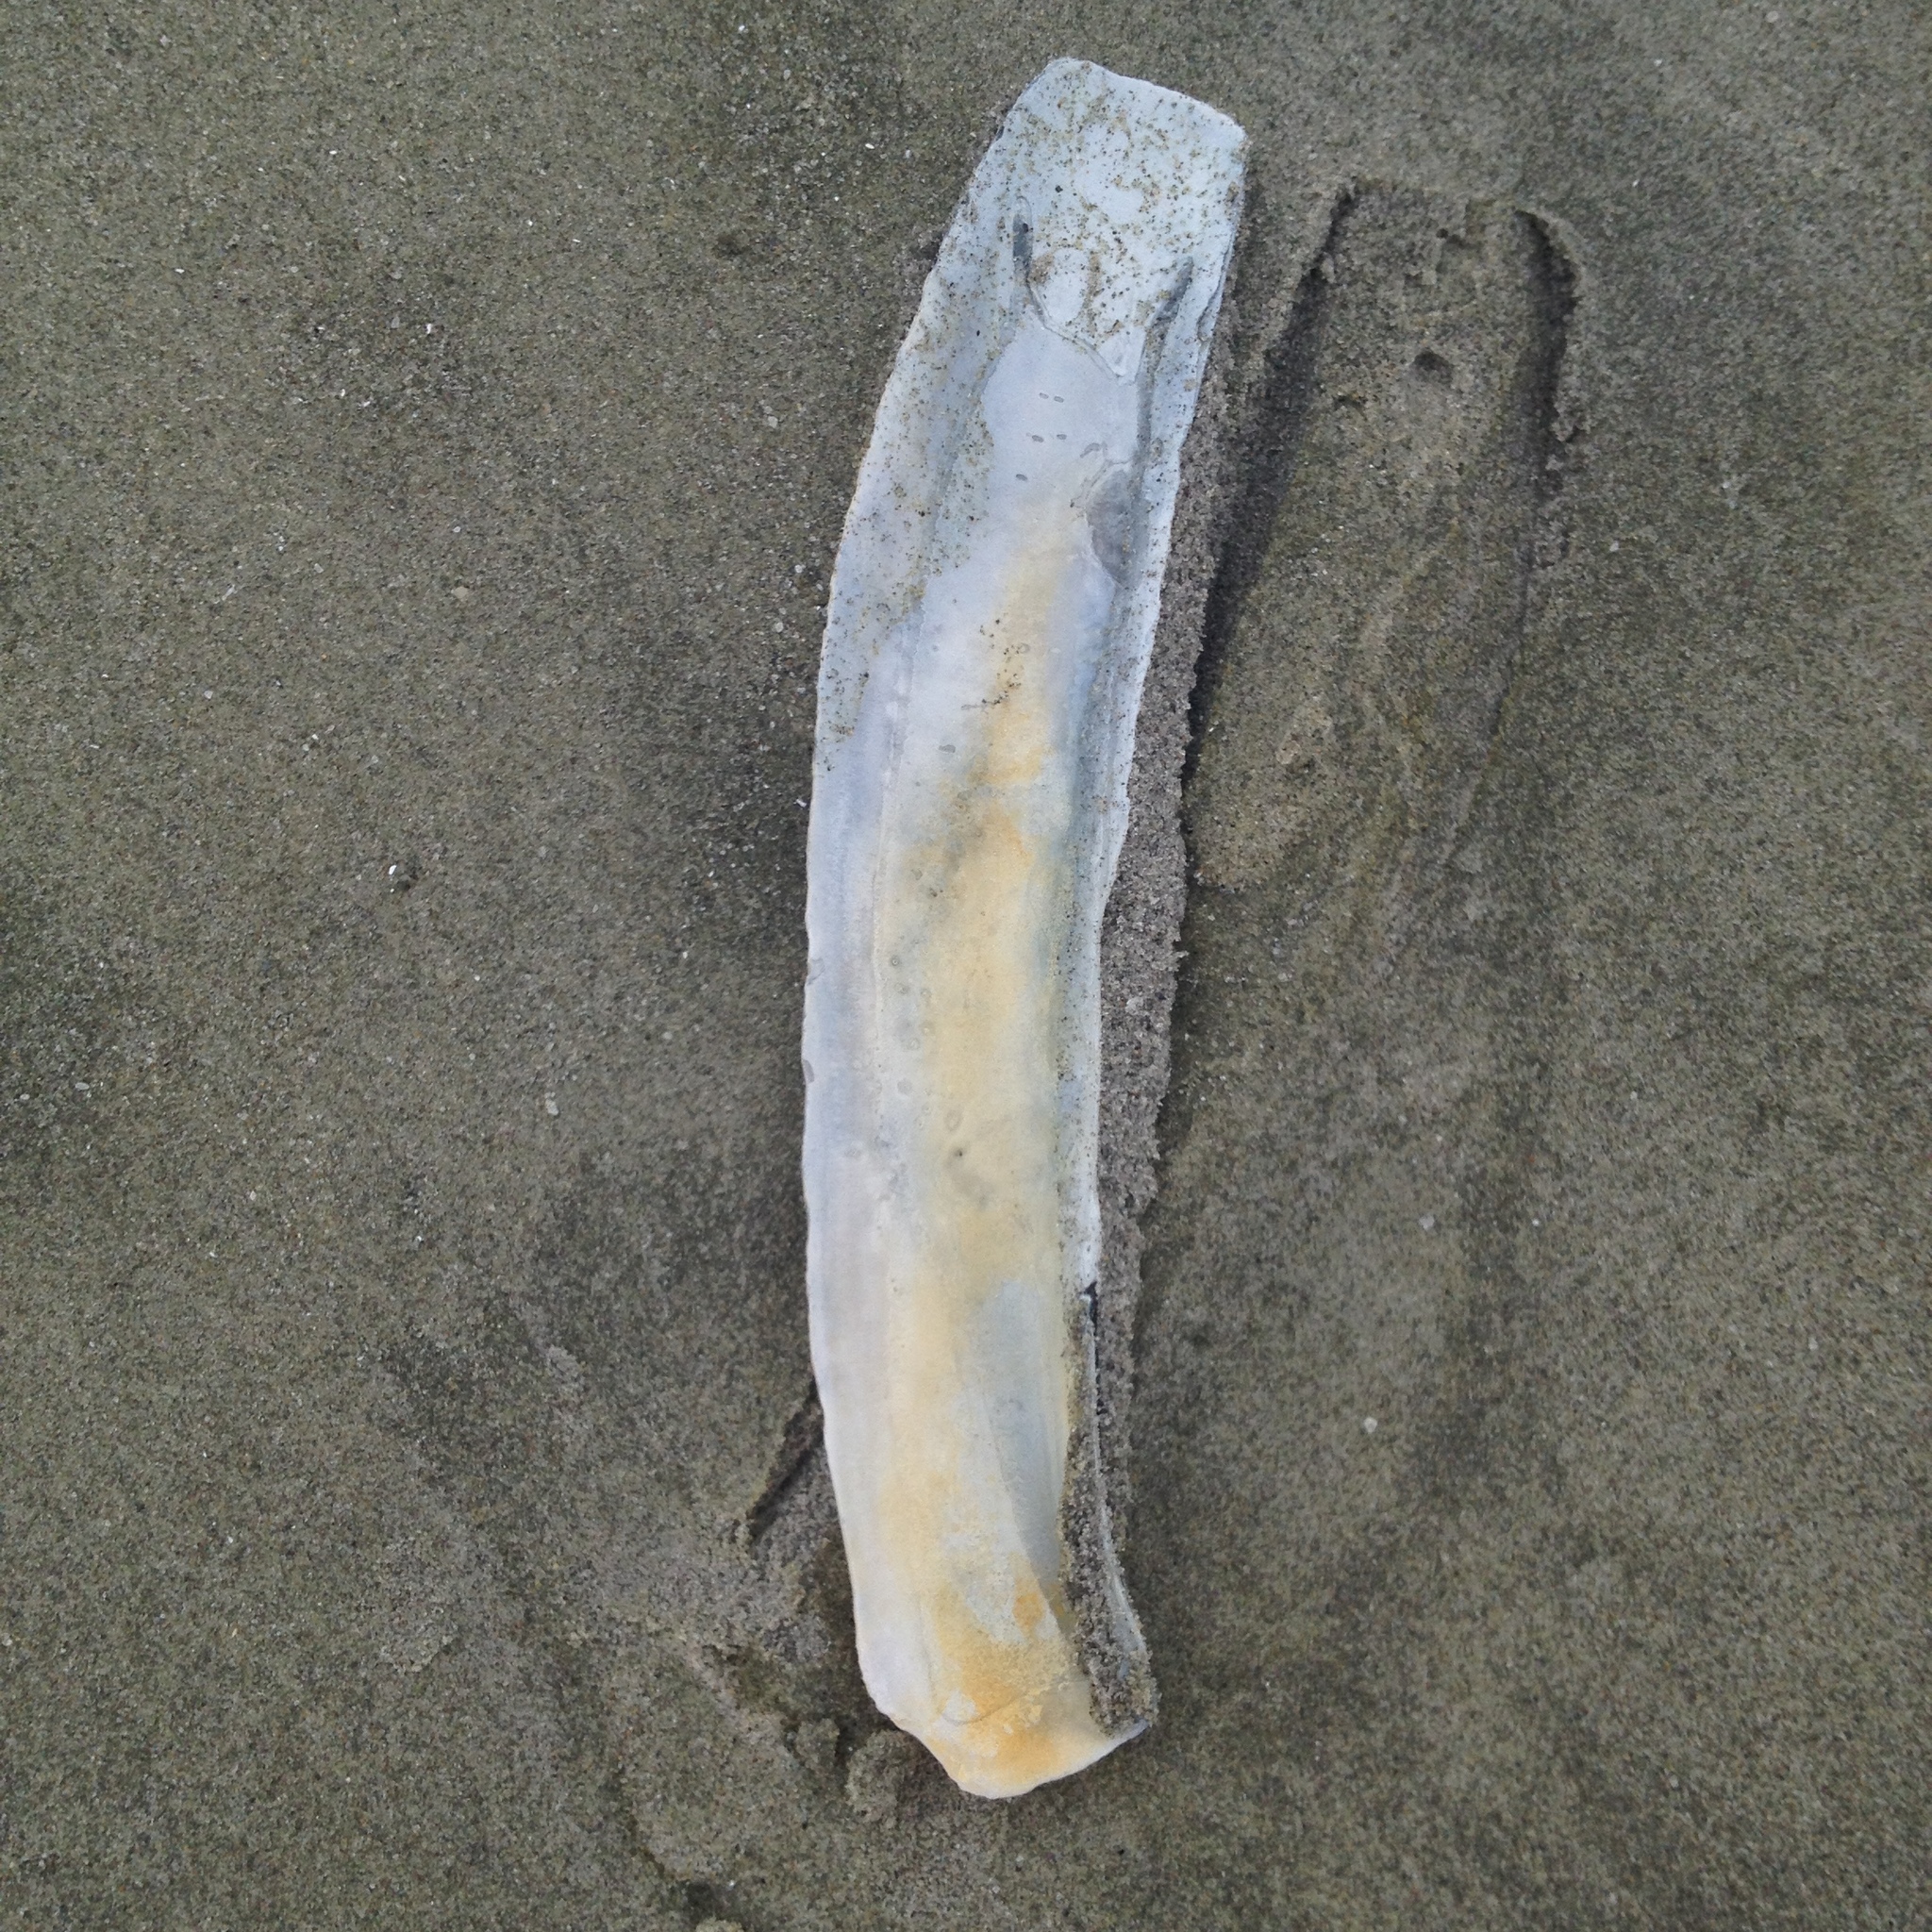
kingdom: Animalia
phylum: Mollusca
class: Bivalvia
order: Adapedonta
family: Pharidae
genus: Ensis
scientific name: Ensis leei
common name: American jack knife clam
